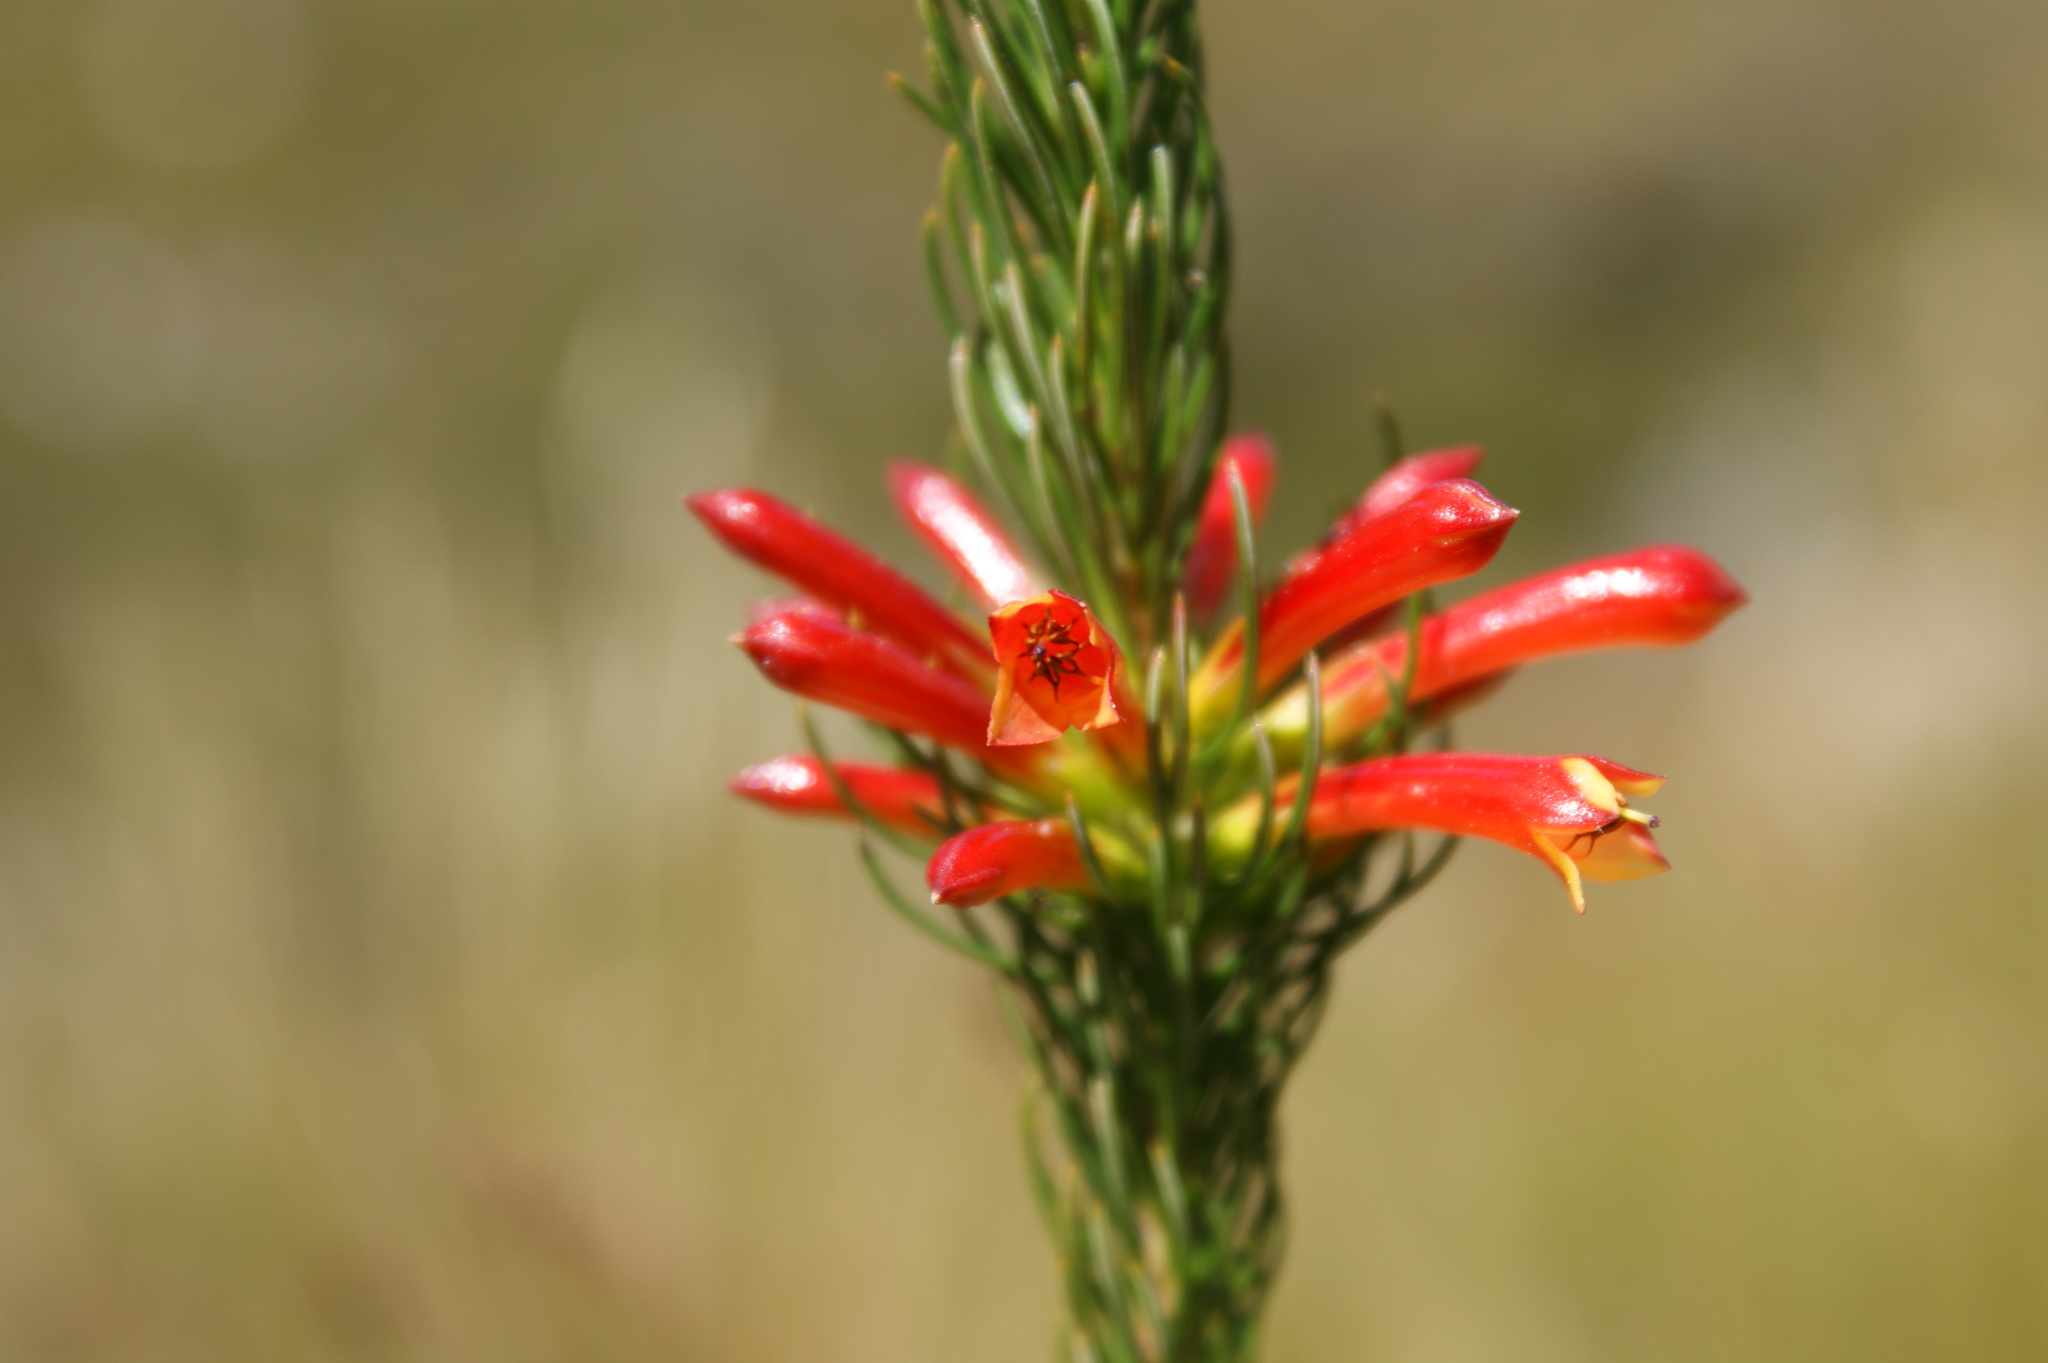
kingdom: Plantae
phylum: Tracheophyta
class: Magnoliopsida
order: Ericales
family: Ericaceae
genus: Erica
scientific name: Erica grandiflora
